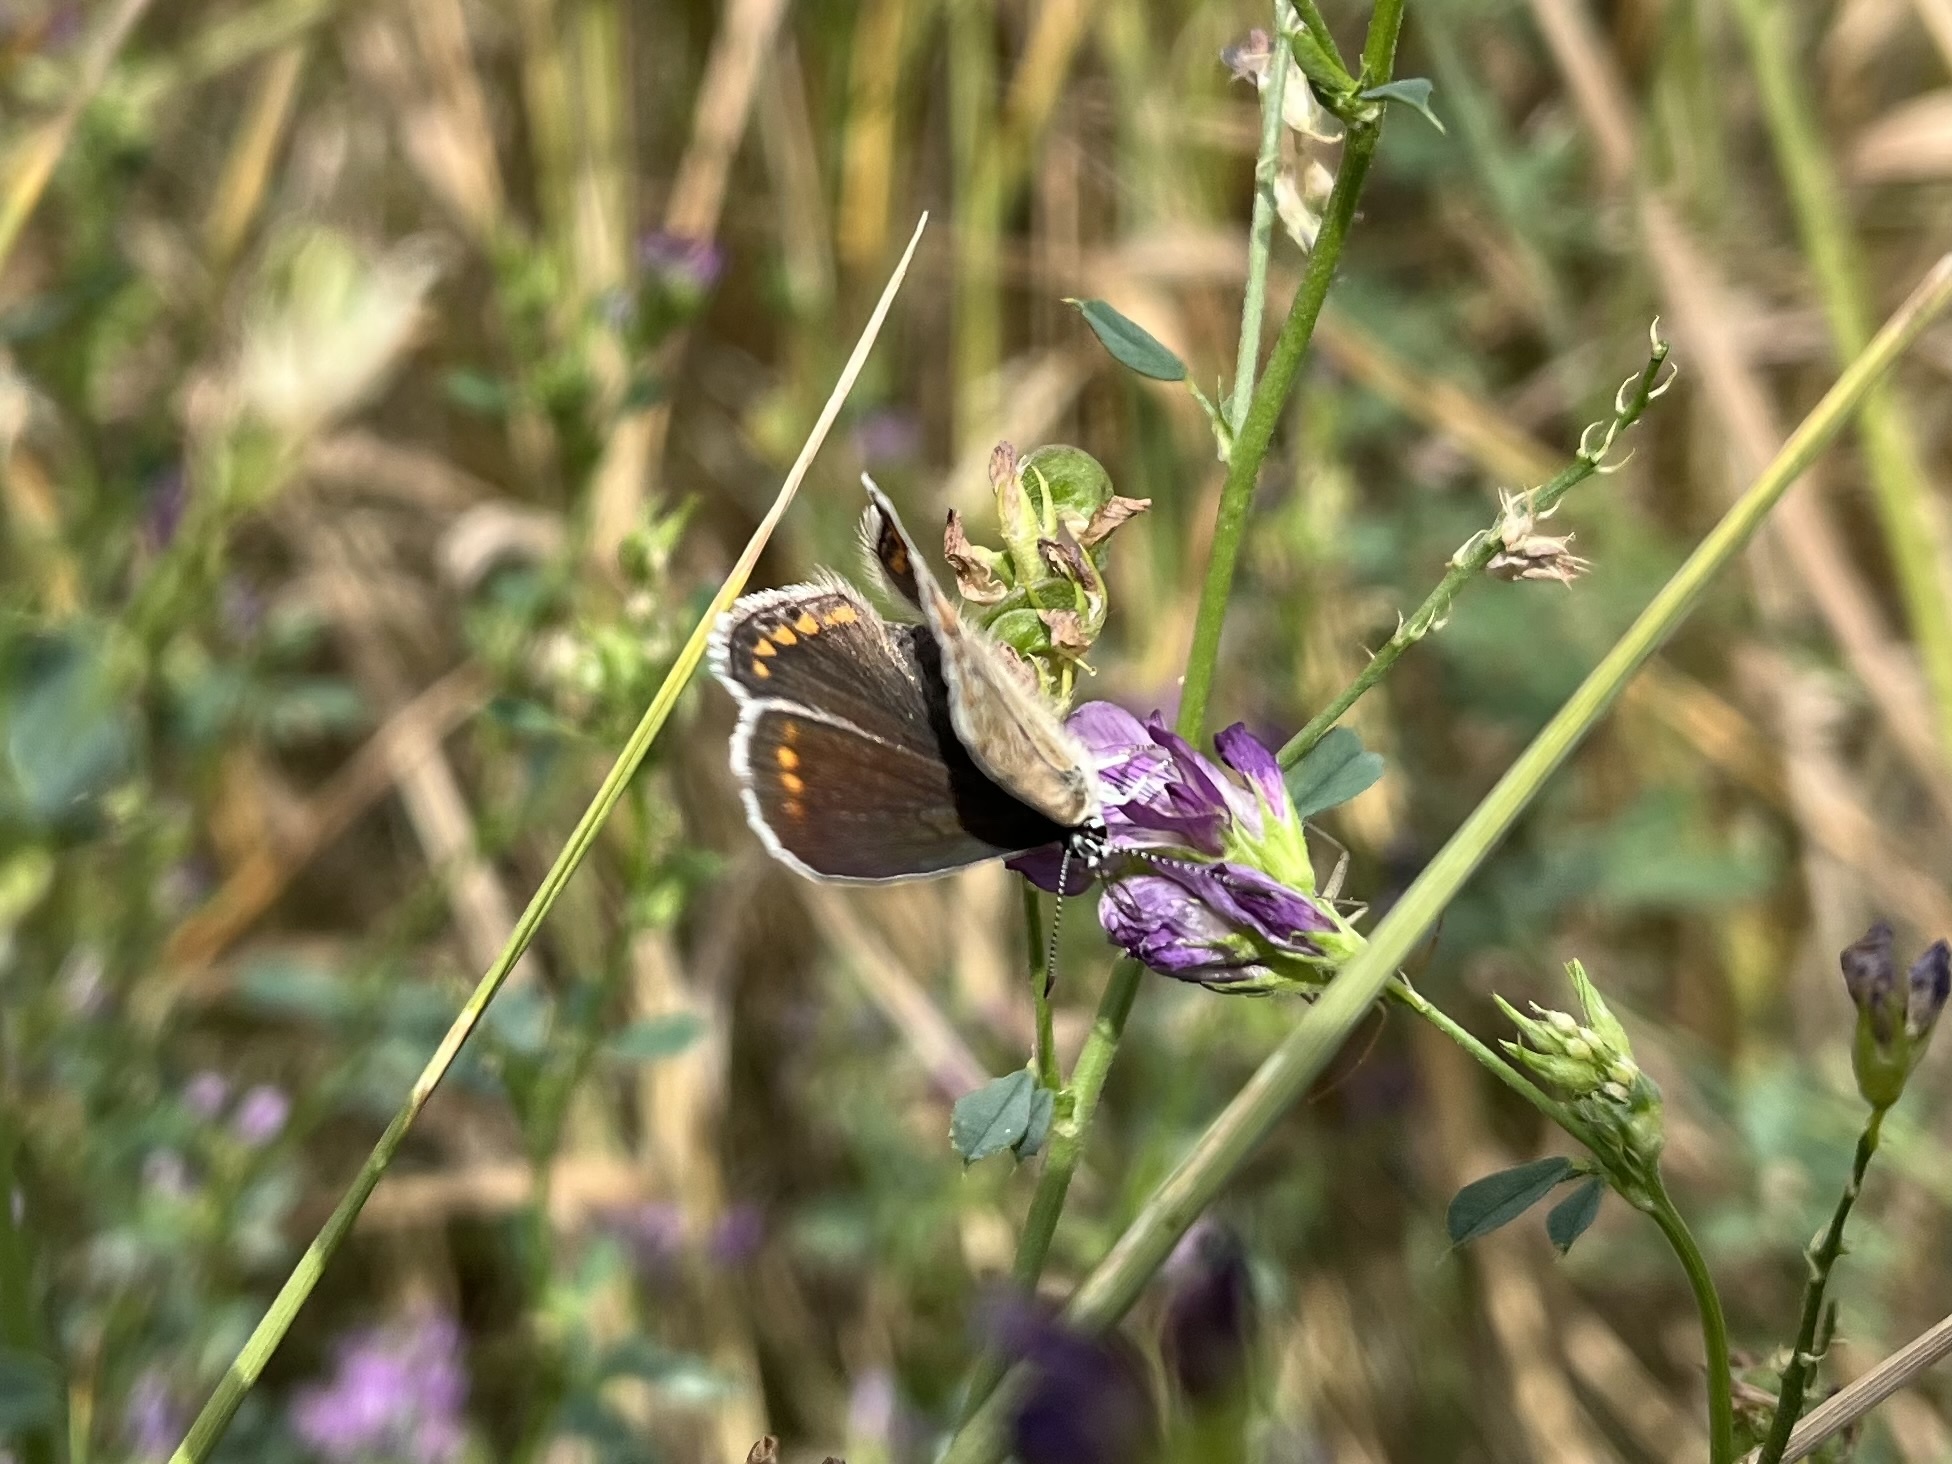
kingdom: Animalia
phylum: Arthropoda
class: Insecta
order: Lepidoptera
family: Lycaenidae
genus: Polyommatus
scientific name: Polyommatus icarus
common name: Common blue
